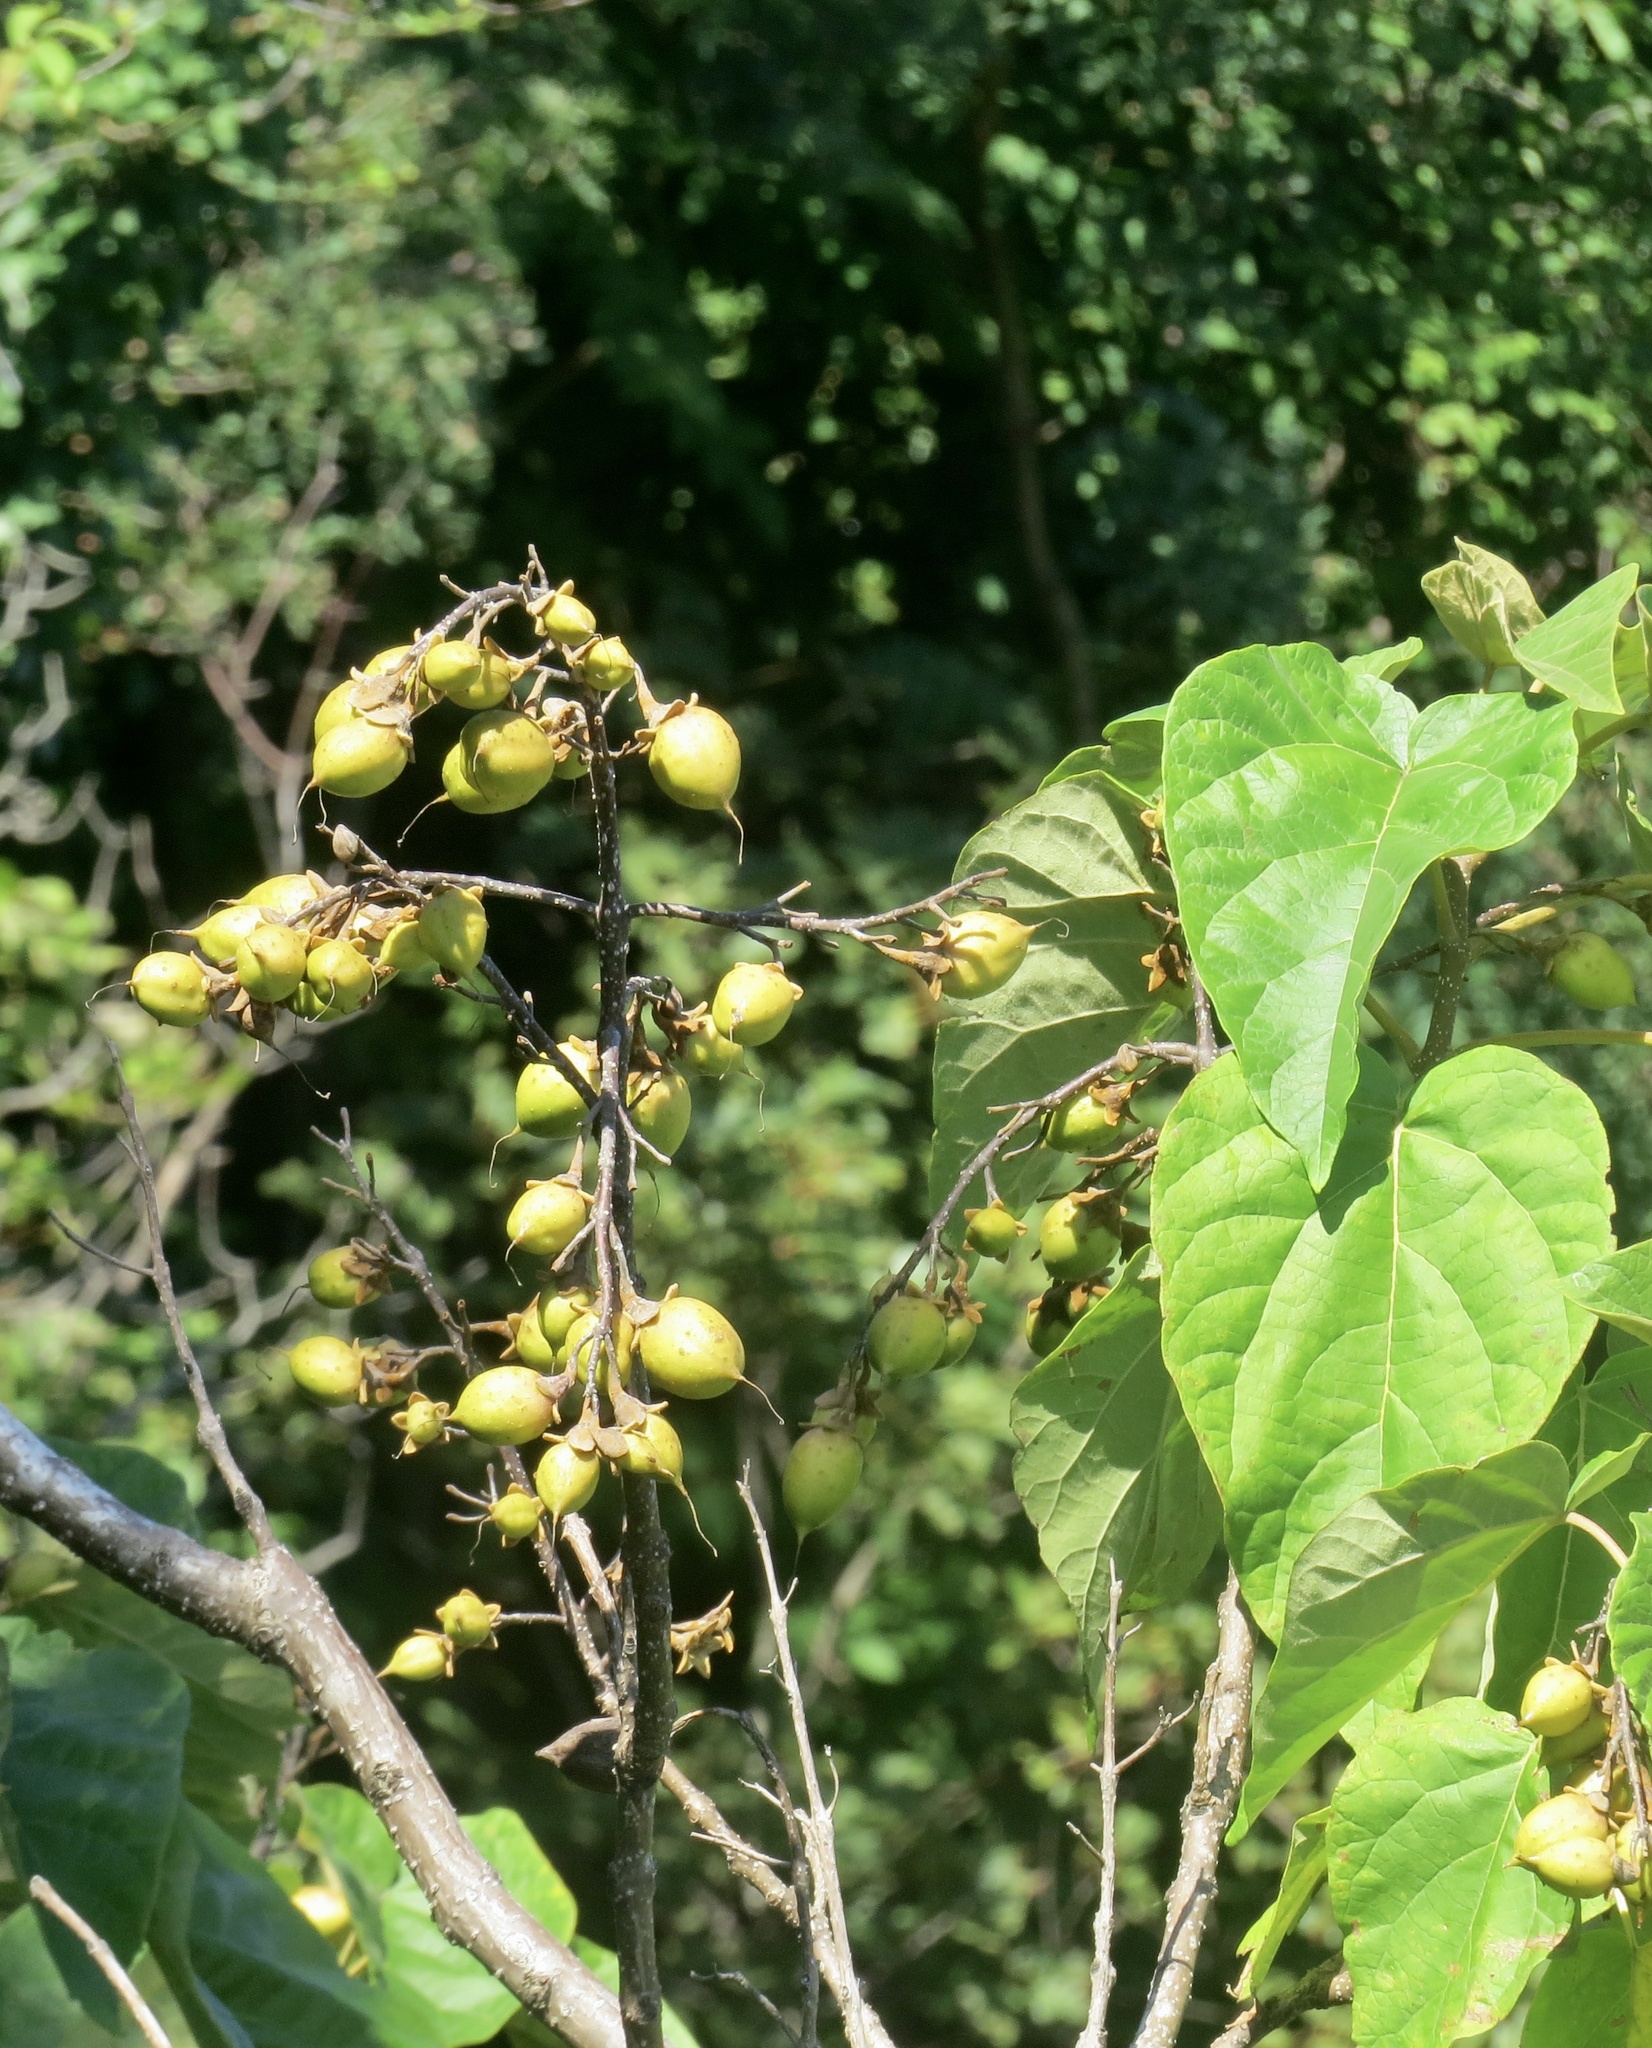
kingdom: Plantae
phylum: Tracheophyta
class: Magnoliopsida
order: Lamiales
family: Paulowniaceae
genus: Paulownia
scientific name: Paulownia tomentosa
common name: Foxglove-tree
